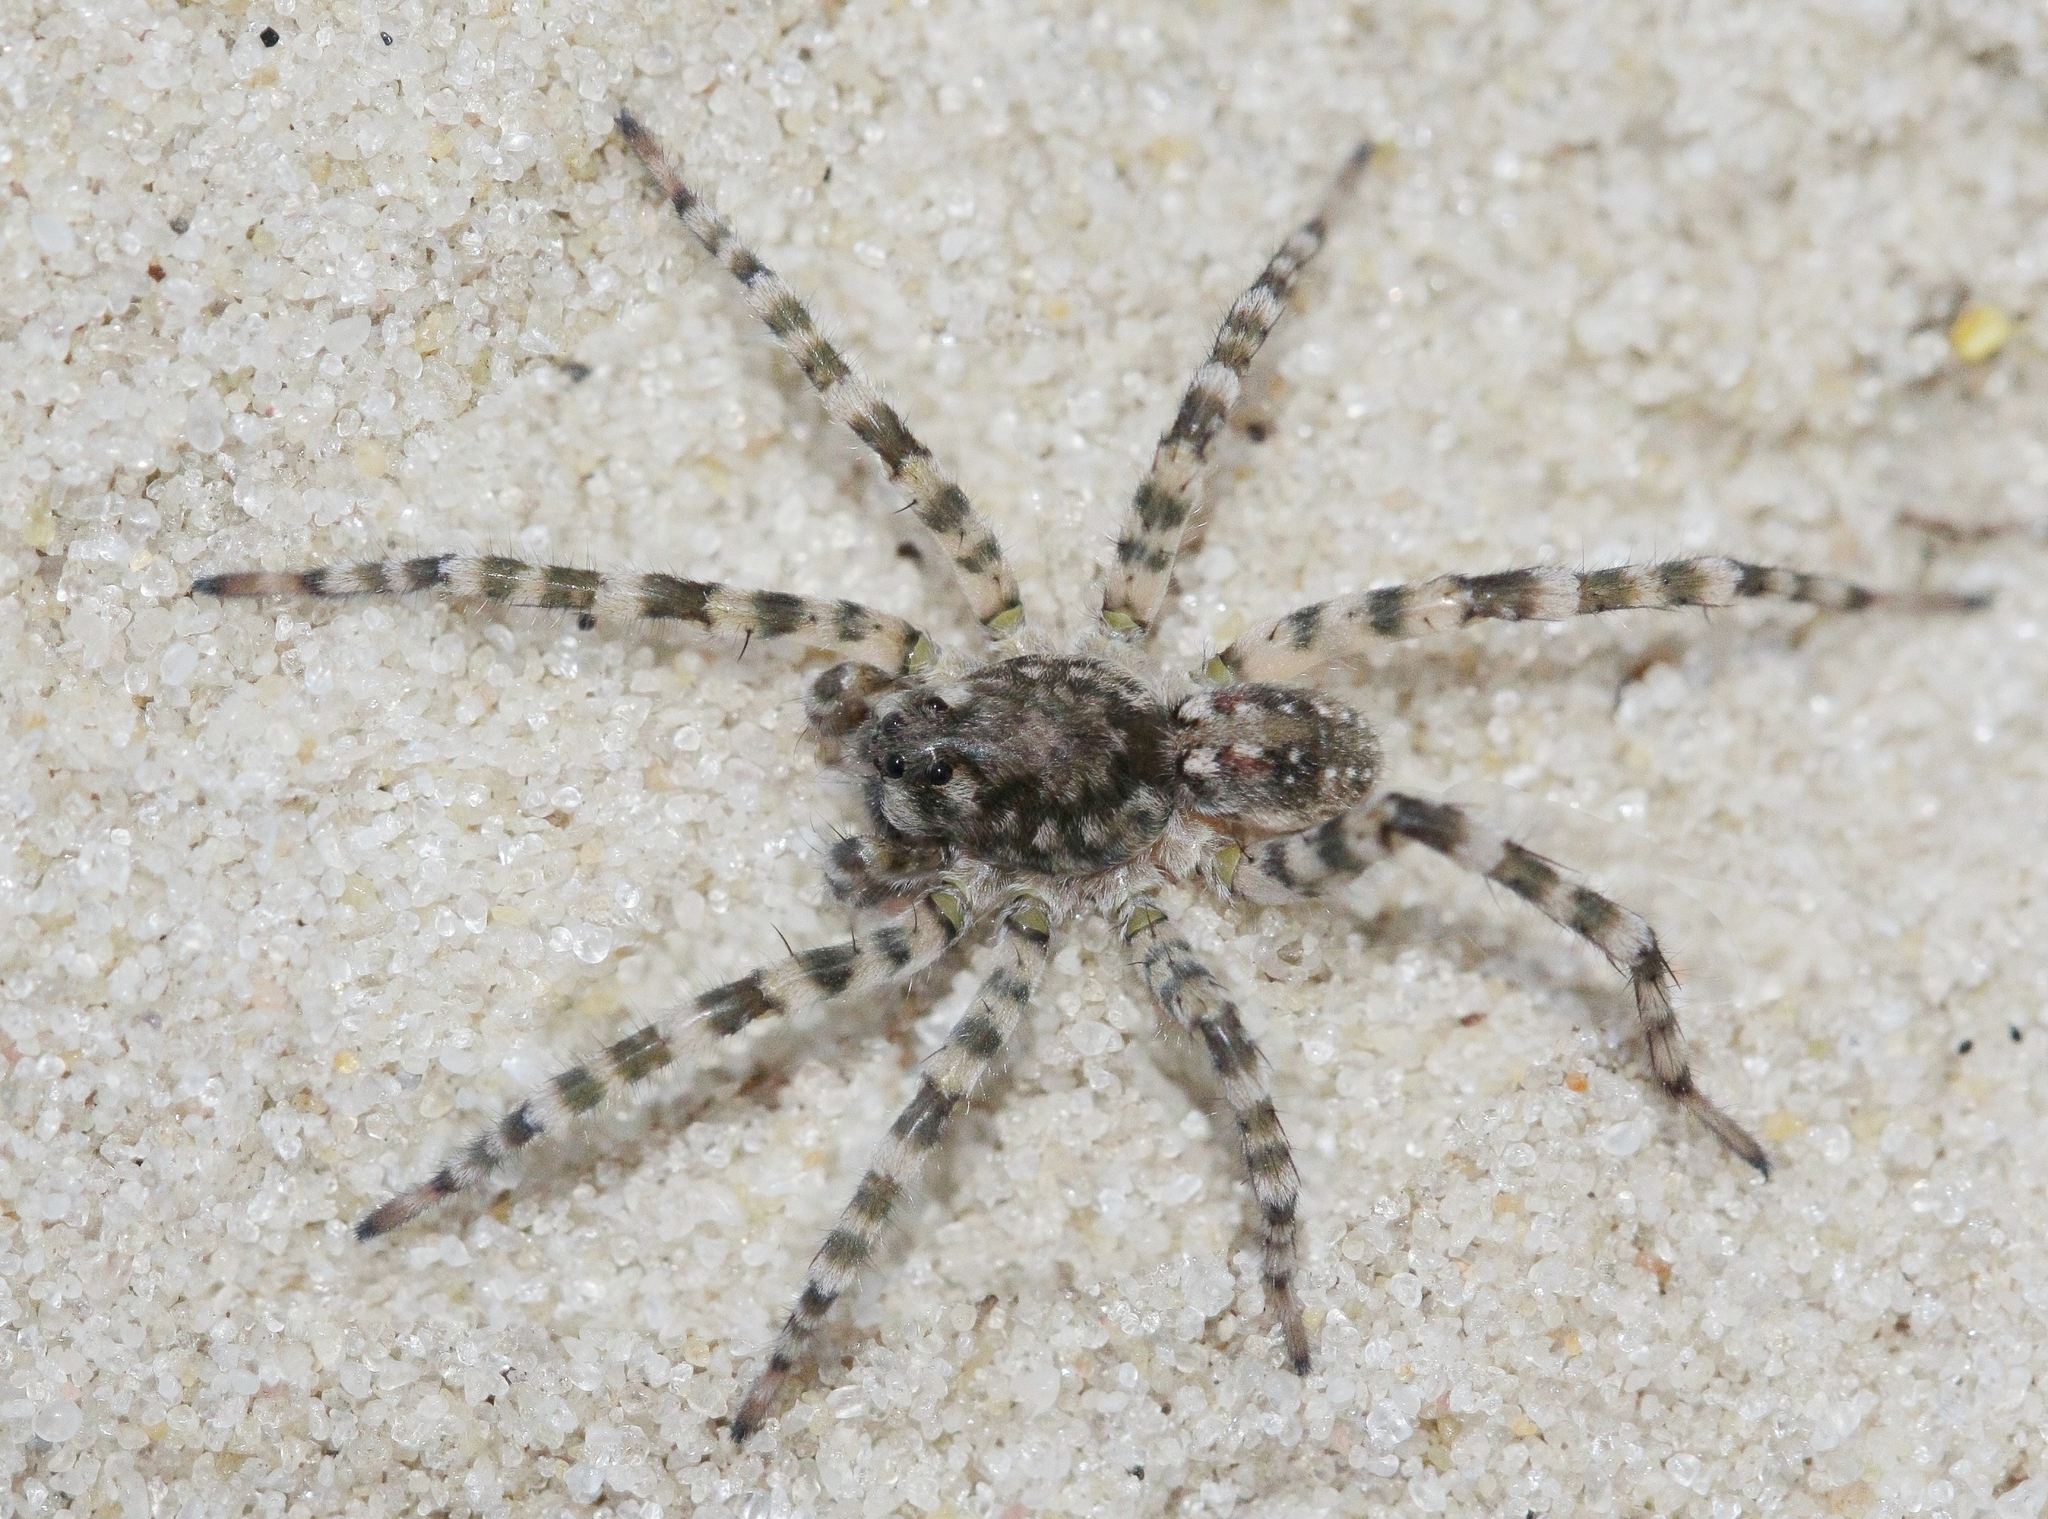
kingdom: Animalia
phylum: Arthropoda
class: Arachnida
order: Araneae
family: Lycosidae
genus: Arctosa
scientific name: Arctosa cinerea
